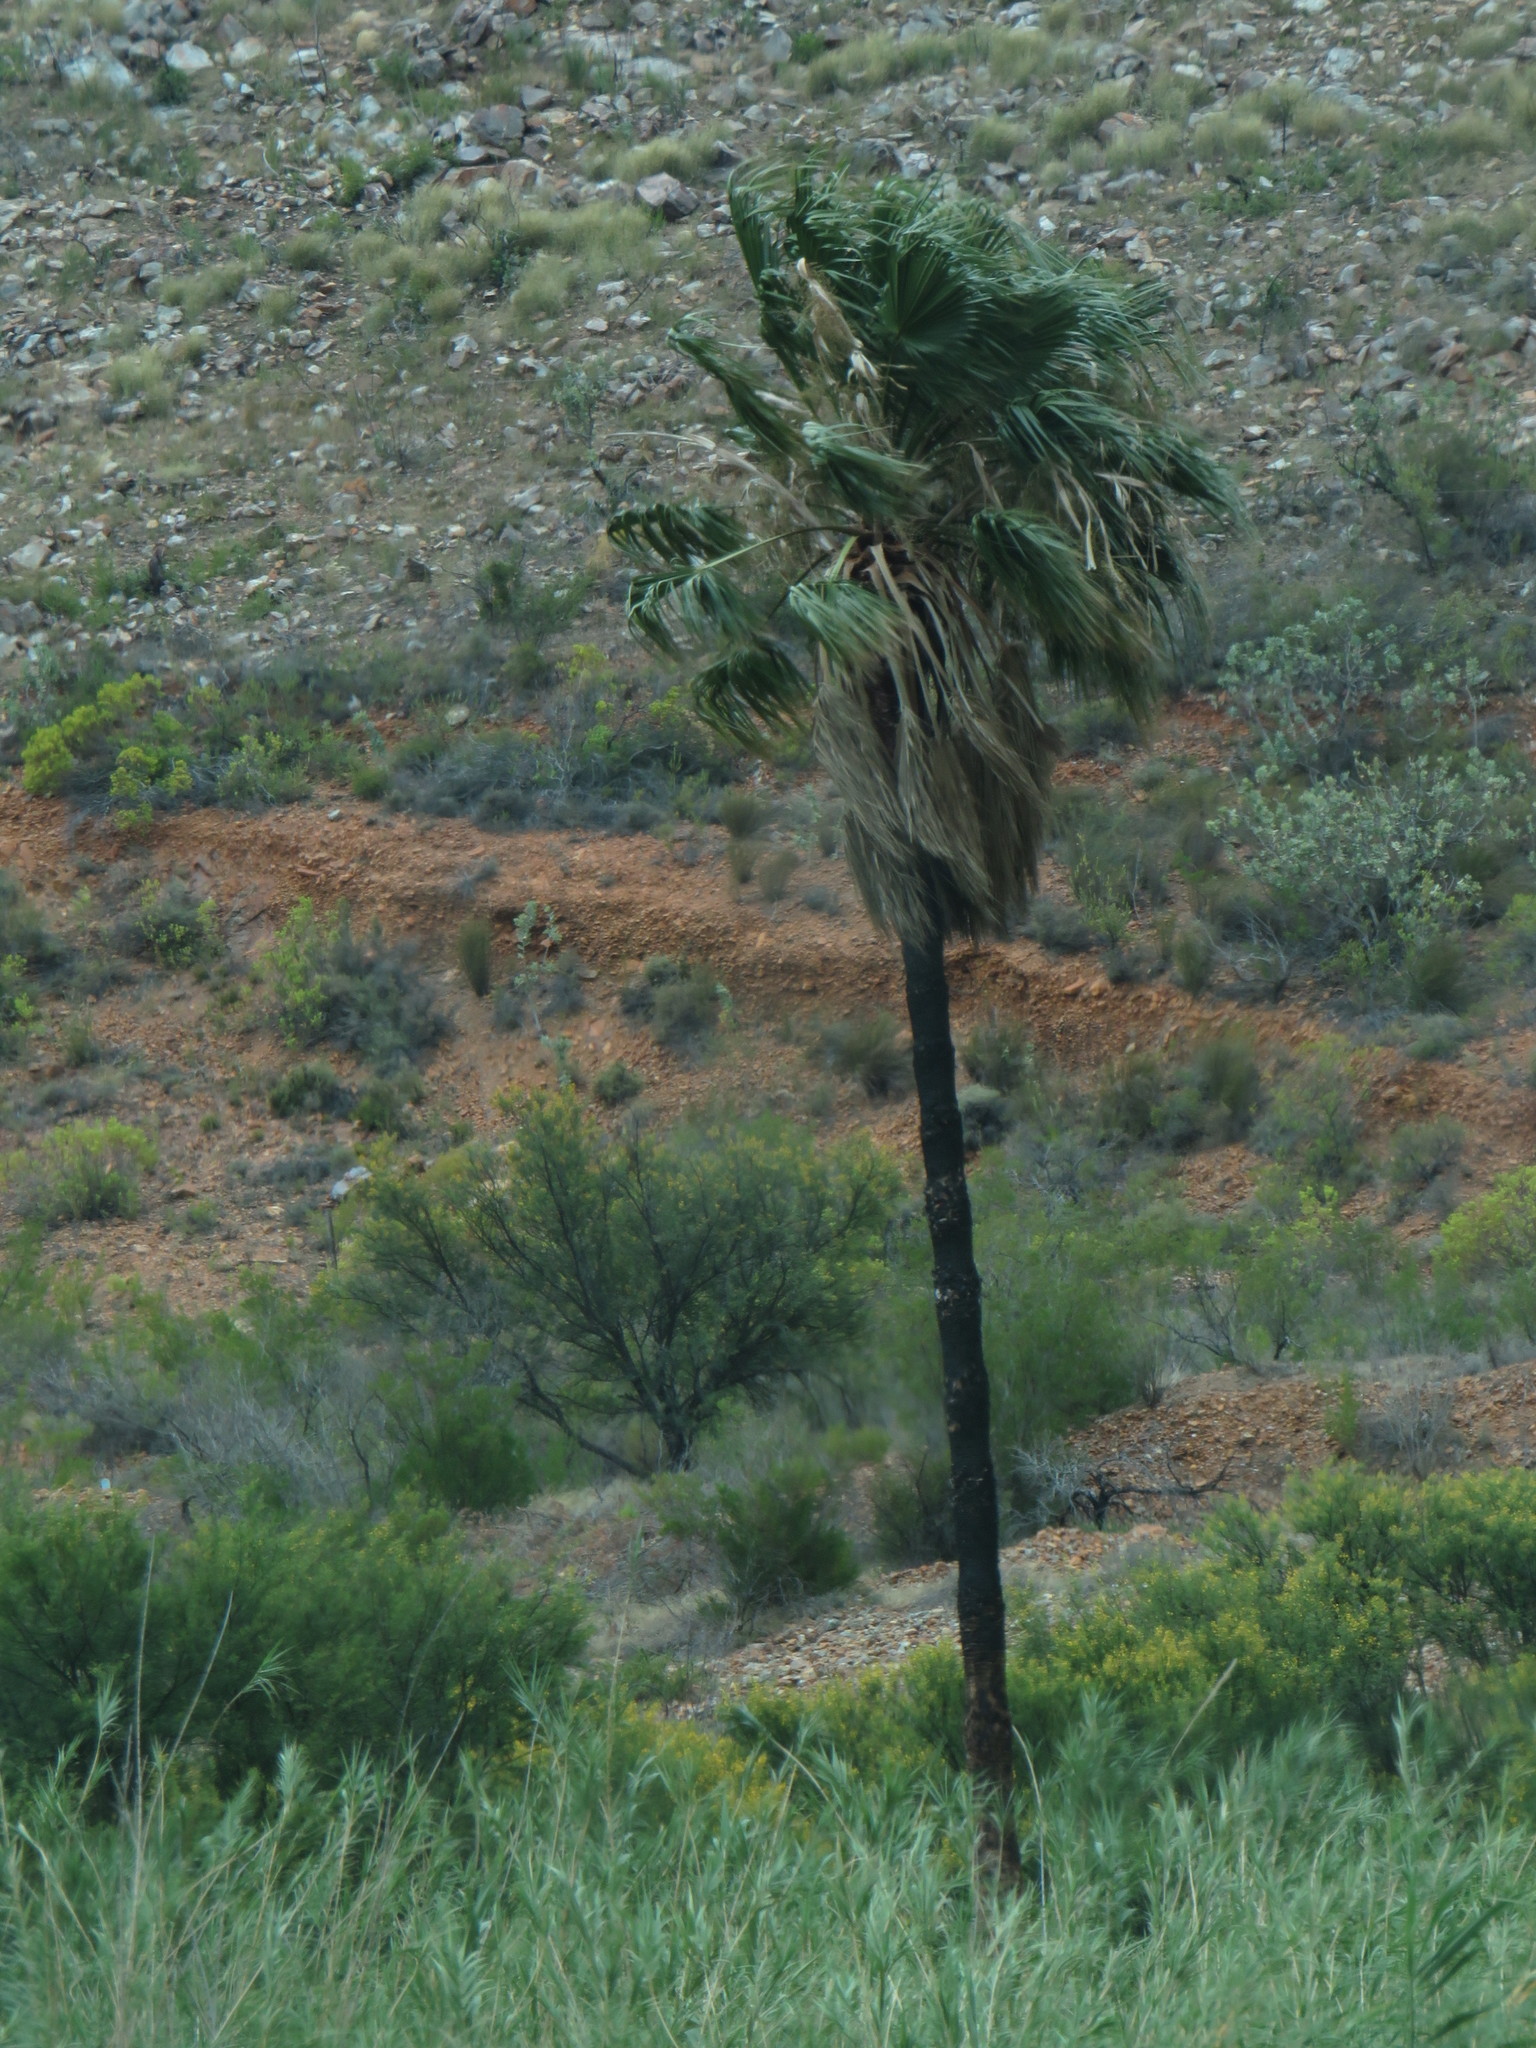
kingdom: Plantae
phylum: Tracheophyta
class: Liliopsida
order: Arecales
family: Arecaceae
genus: Washingtonia
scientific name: Washingtonia robusta
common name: Mexican fan palm
